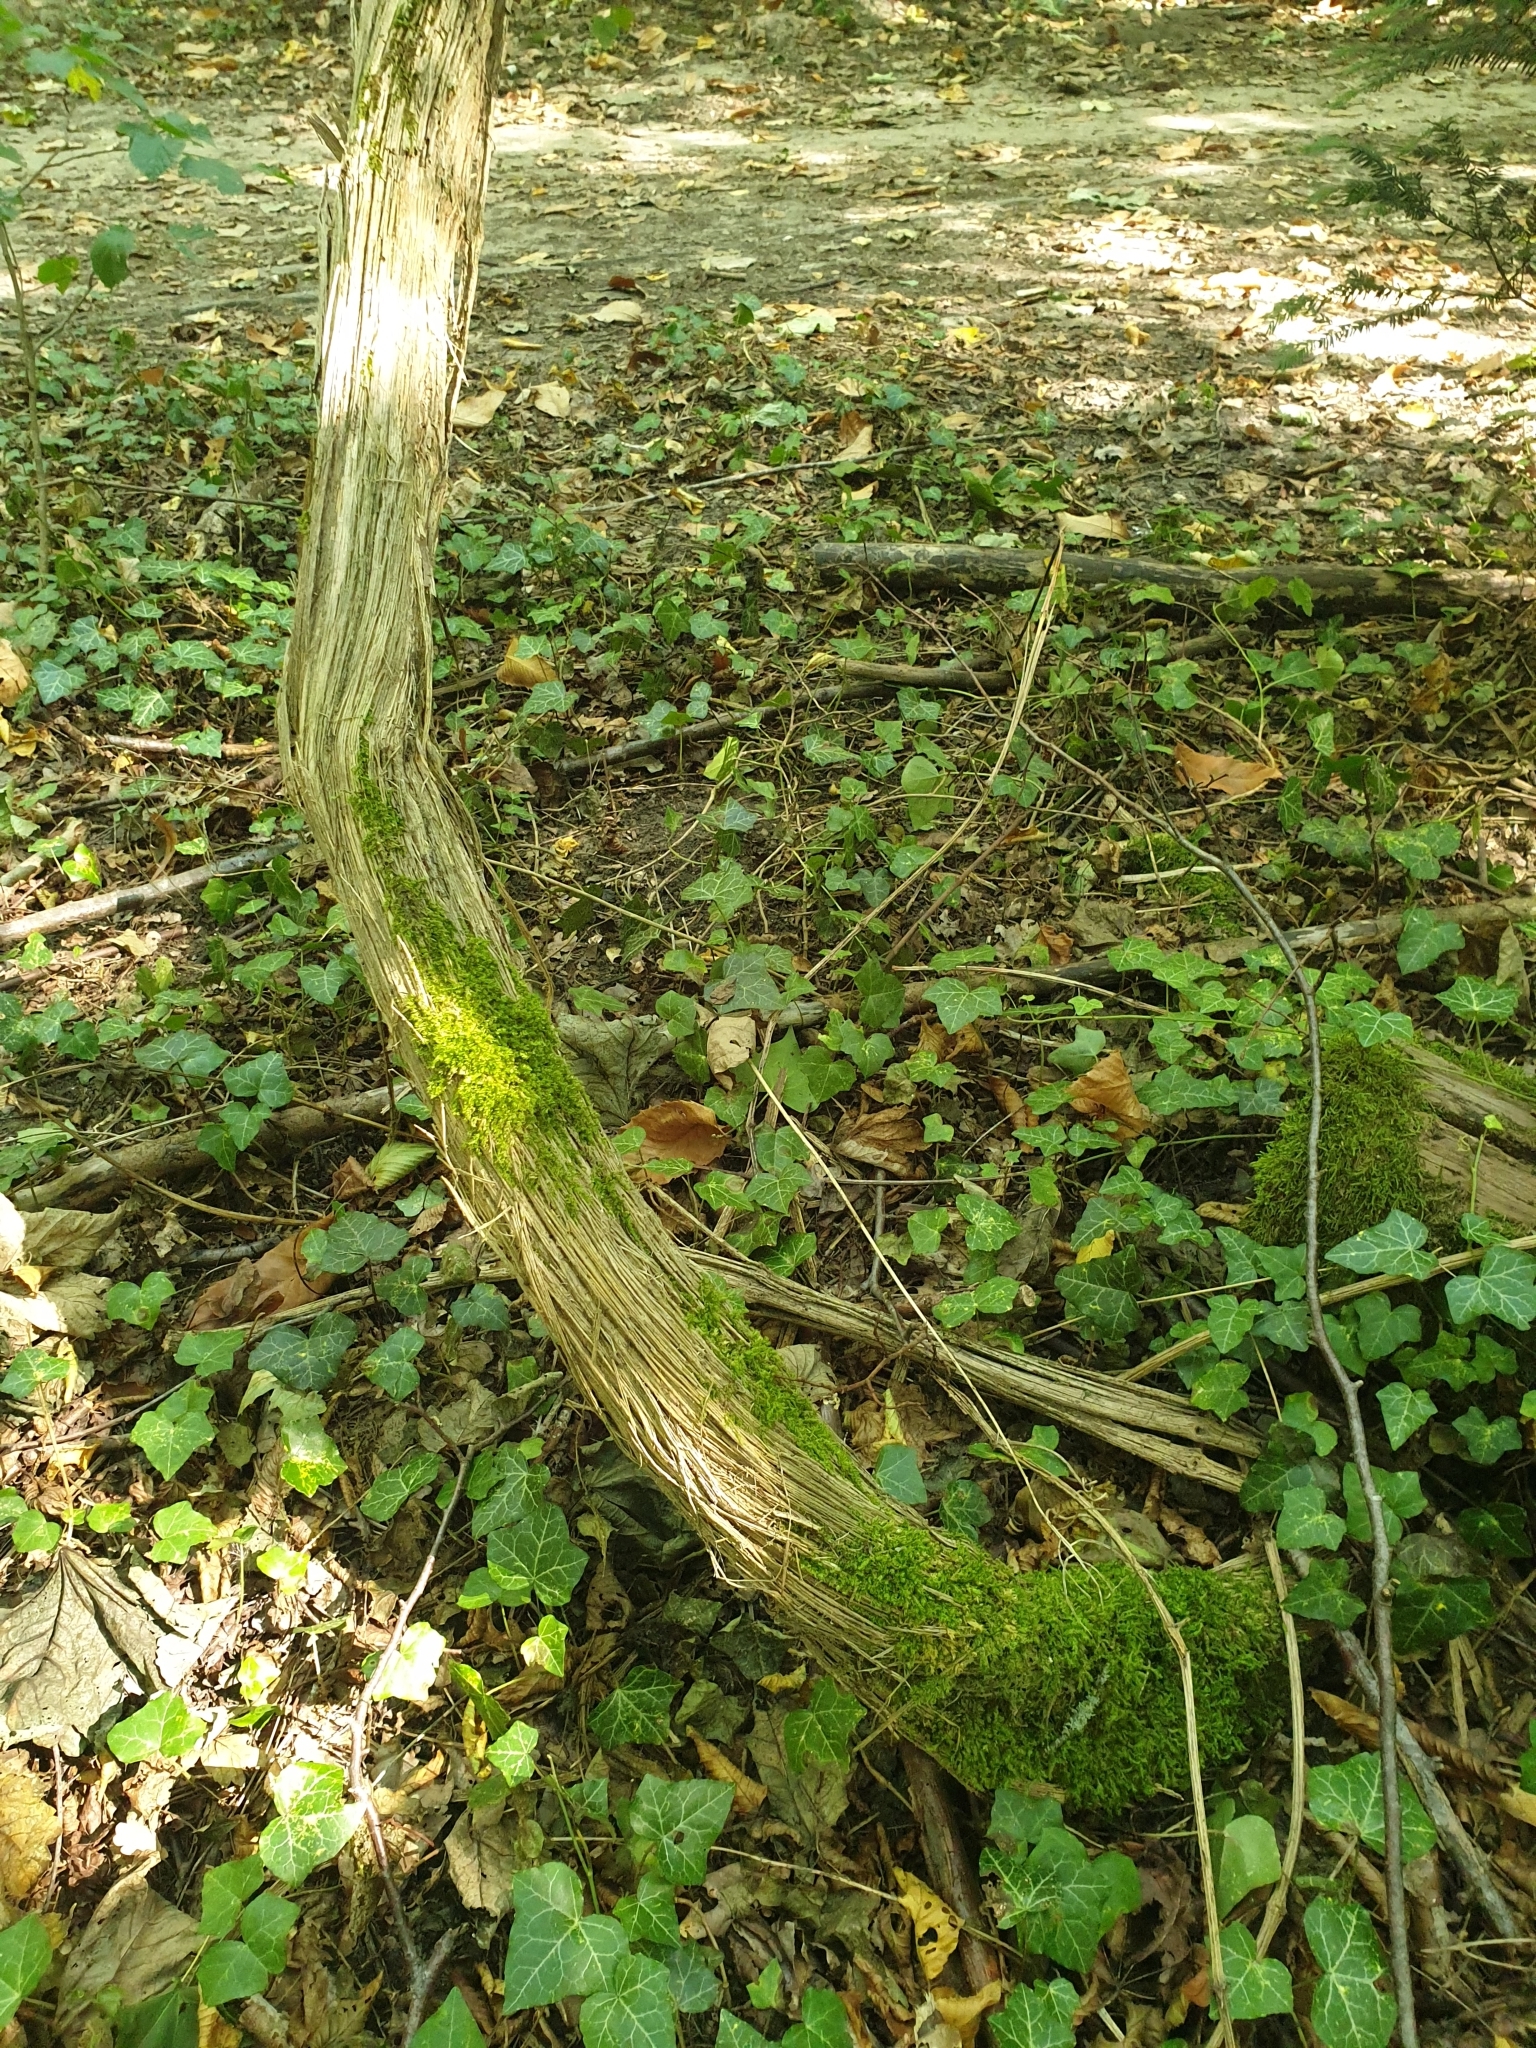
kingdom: Plantae
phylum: Tracheophyta
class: Magnoliopsida
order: Ranunculales
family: Ranunculaceae
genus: Clematis
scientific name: Clematis vitalba
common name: Evergreen clematis
